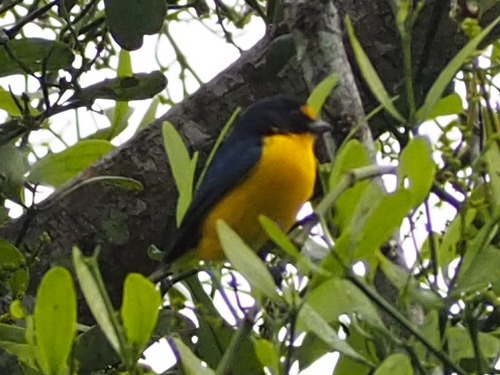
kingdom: Animalia
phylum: Chordata
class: Aves
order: Passeriformes
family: Fringillidae
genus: Euphonia
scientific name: Euphonia hirundinacea
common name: Yellow-throated euphonia
